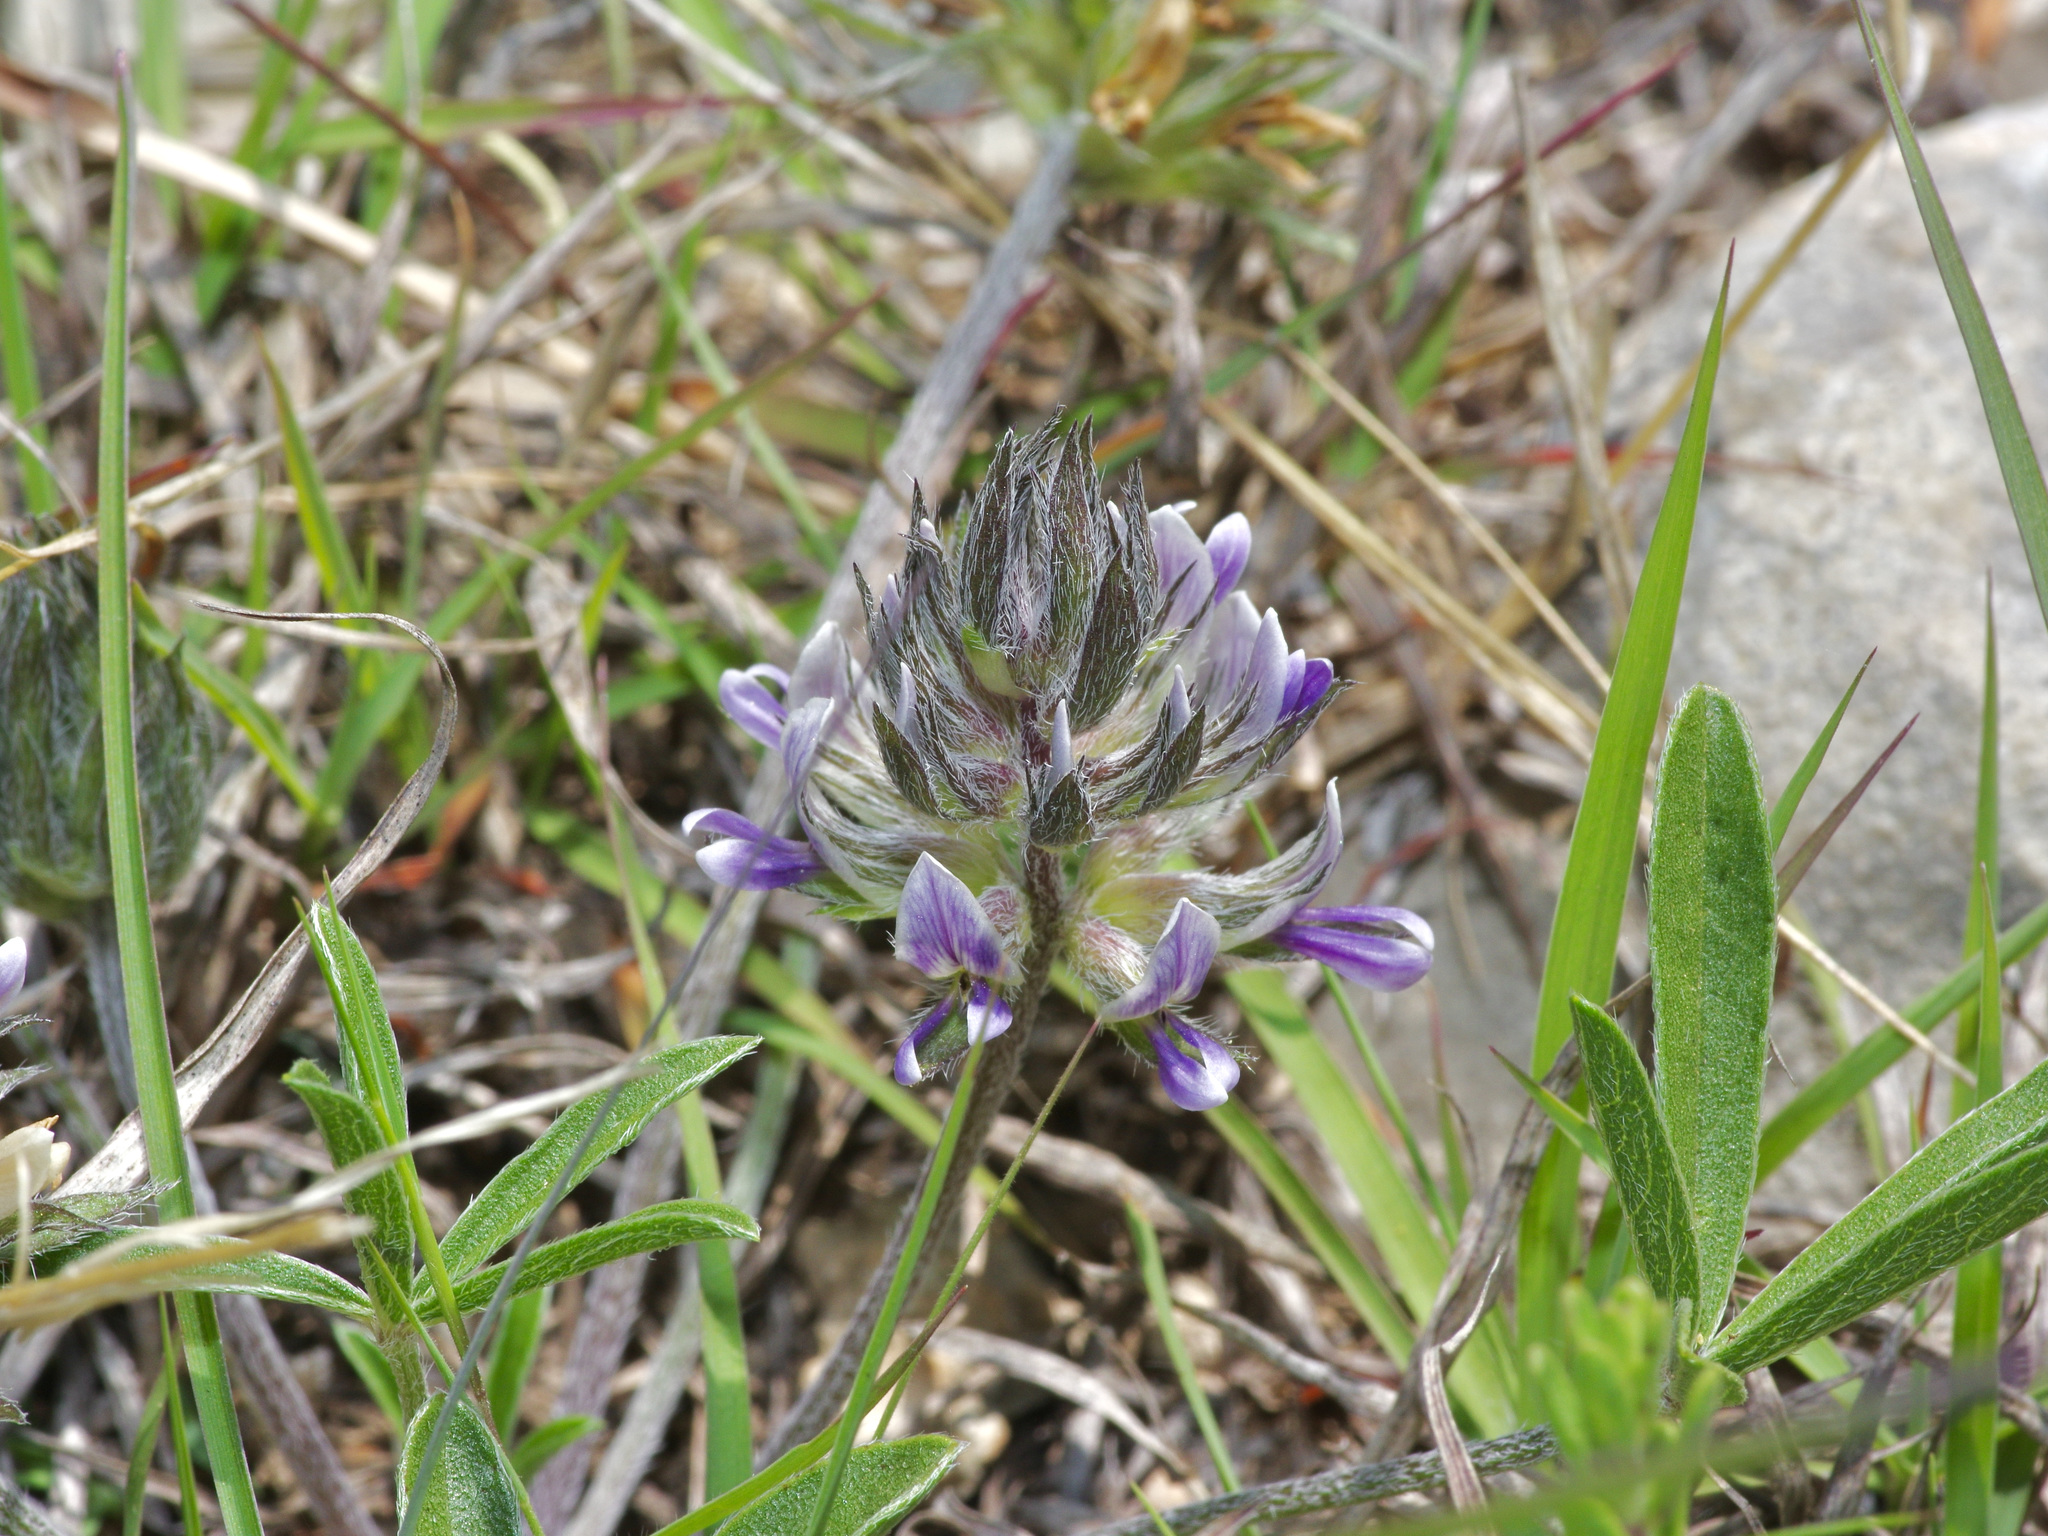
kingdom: Plantae
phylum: Tracheophyta
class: Magnoliopsida
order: Fabales
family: Fabaceae
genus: Pediomelum
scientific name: Pediomelum hypogaeum
